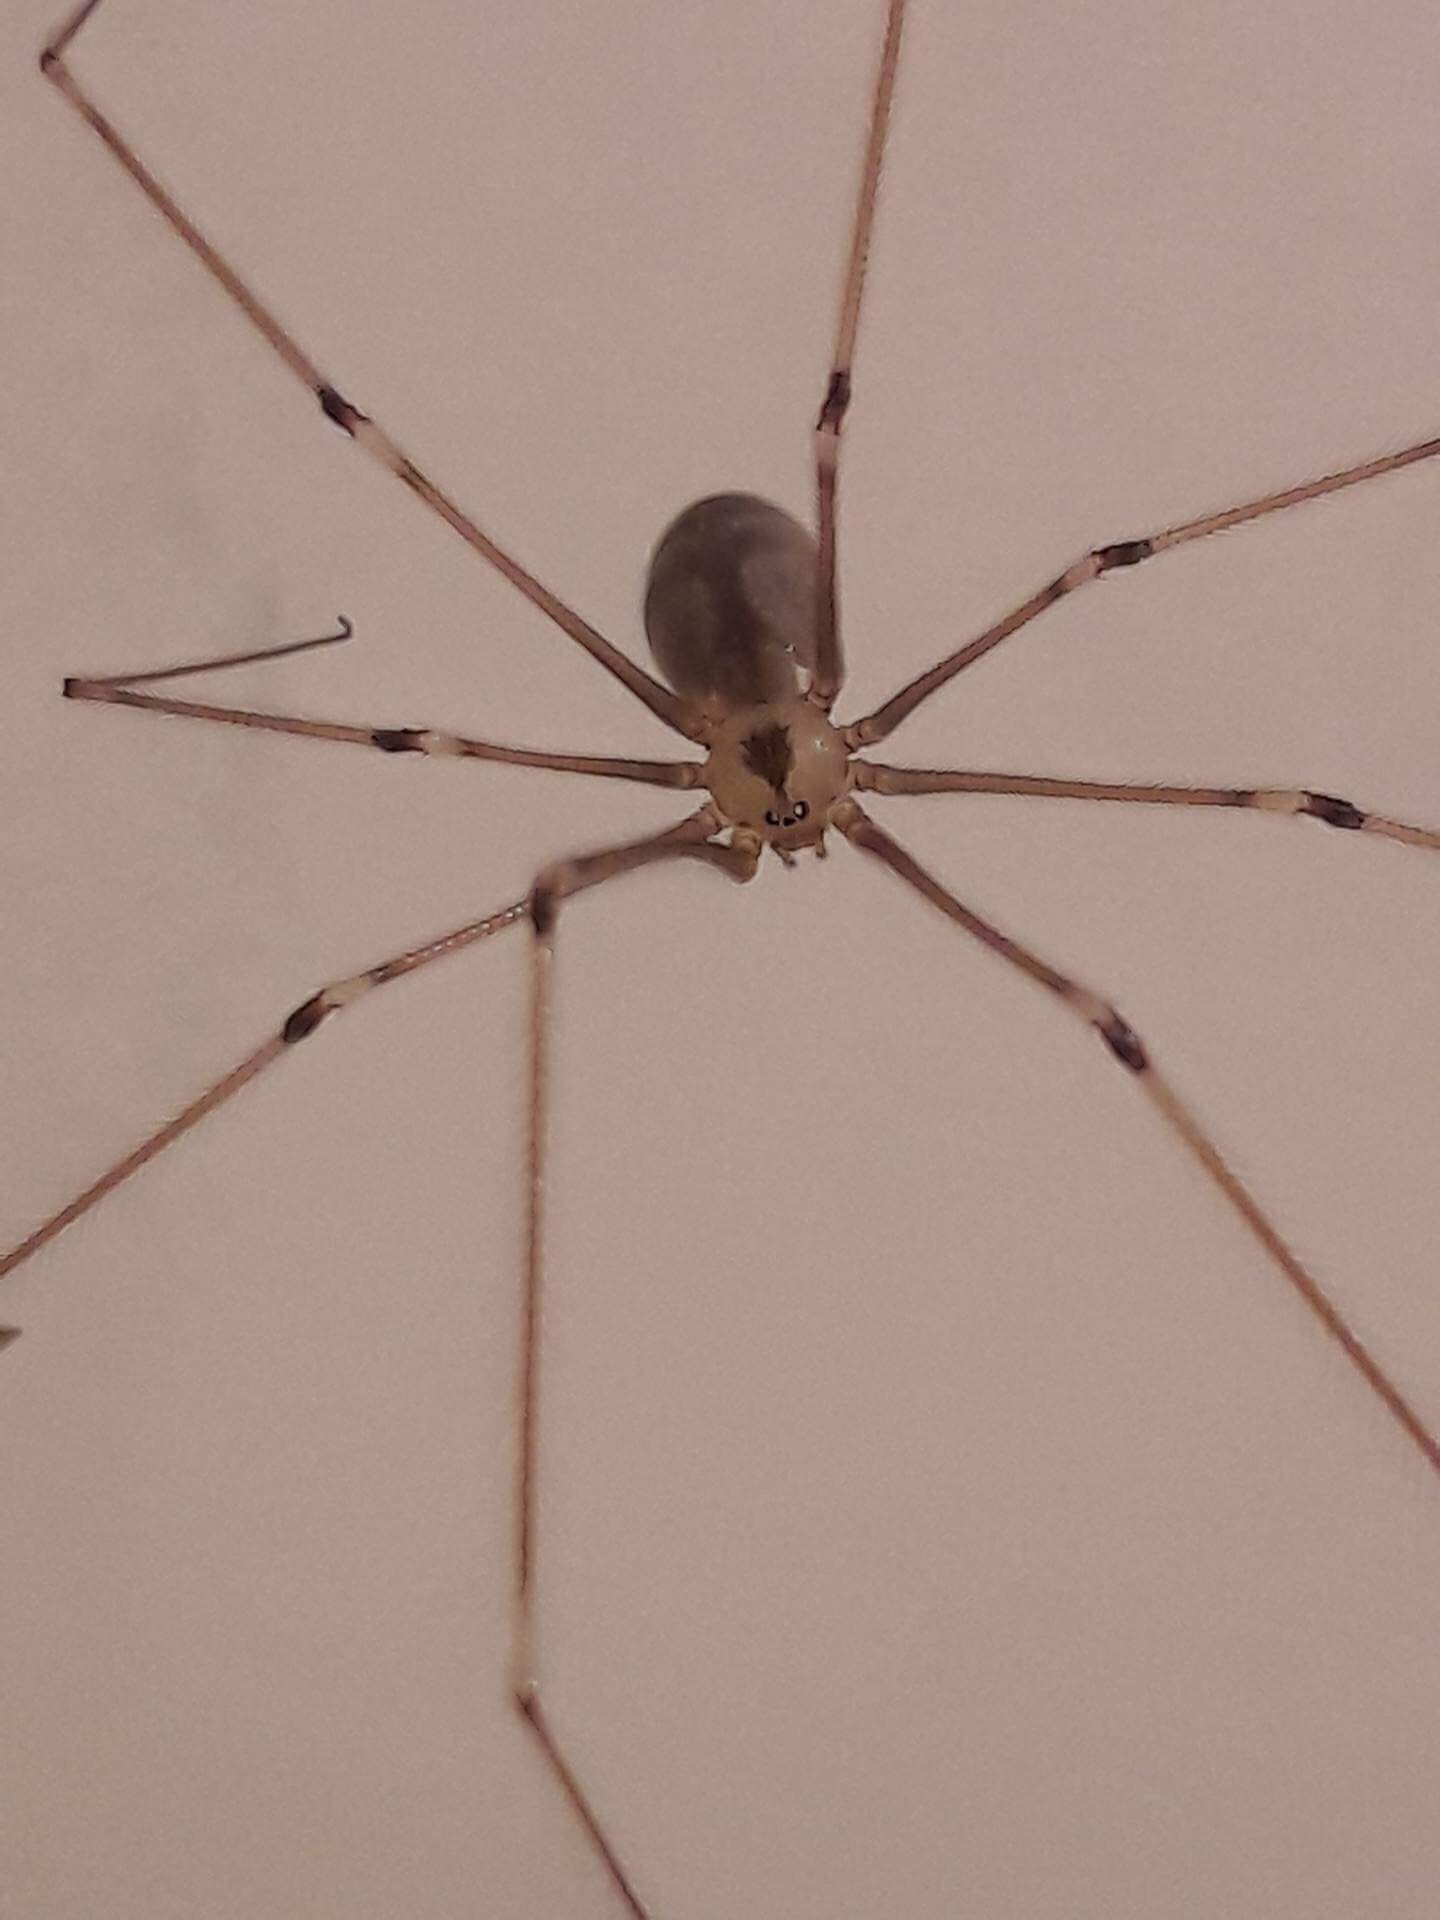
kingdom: Animalia
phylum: Arthropoda
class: Arachnida
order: Araneae
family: Pholcidae
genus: Pholcus
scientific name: Pholcus phalangioides
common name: Longbodied cellar spider
